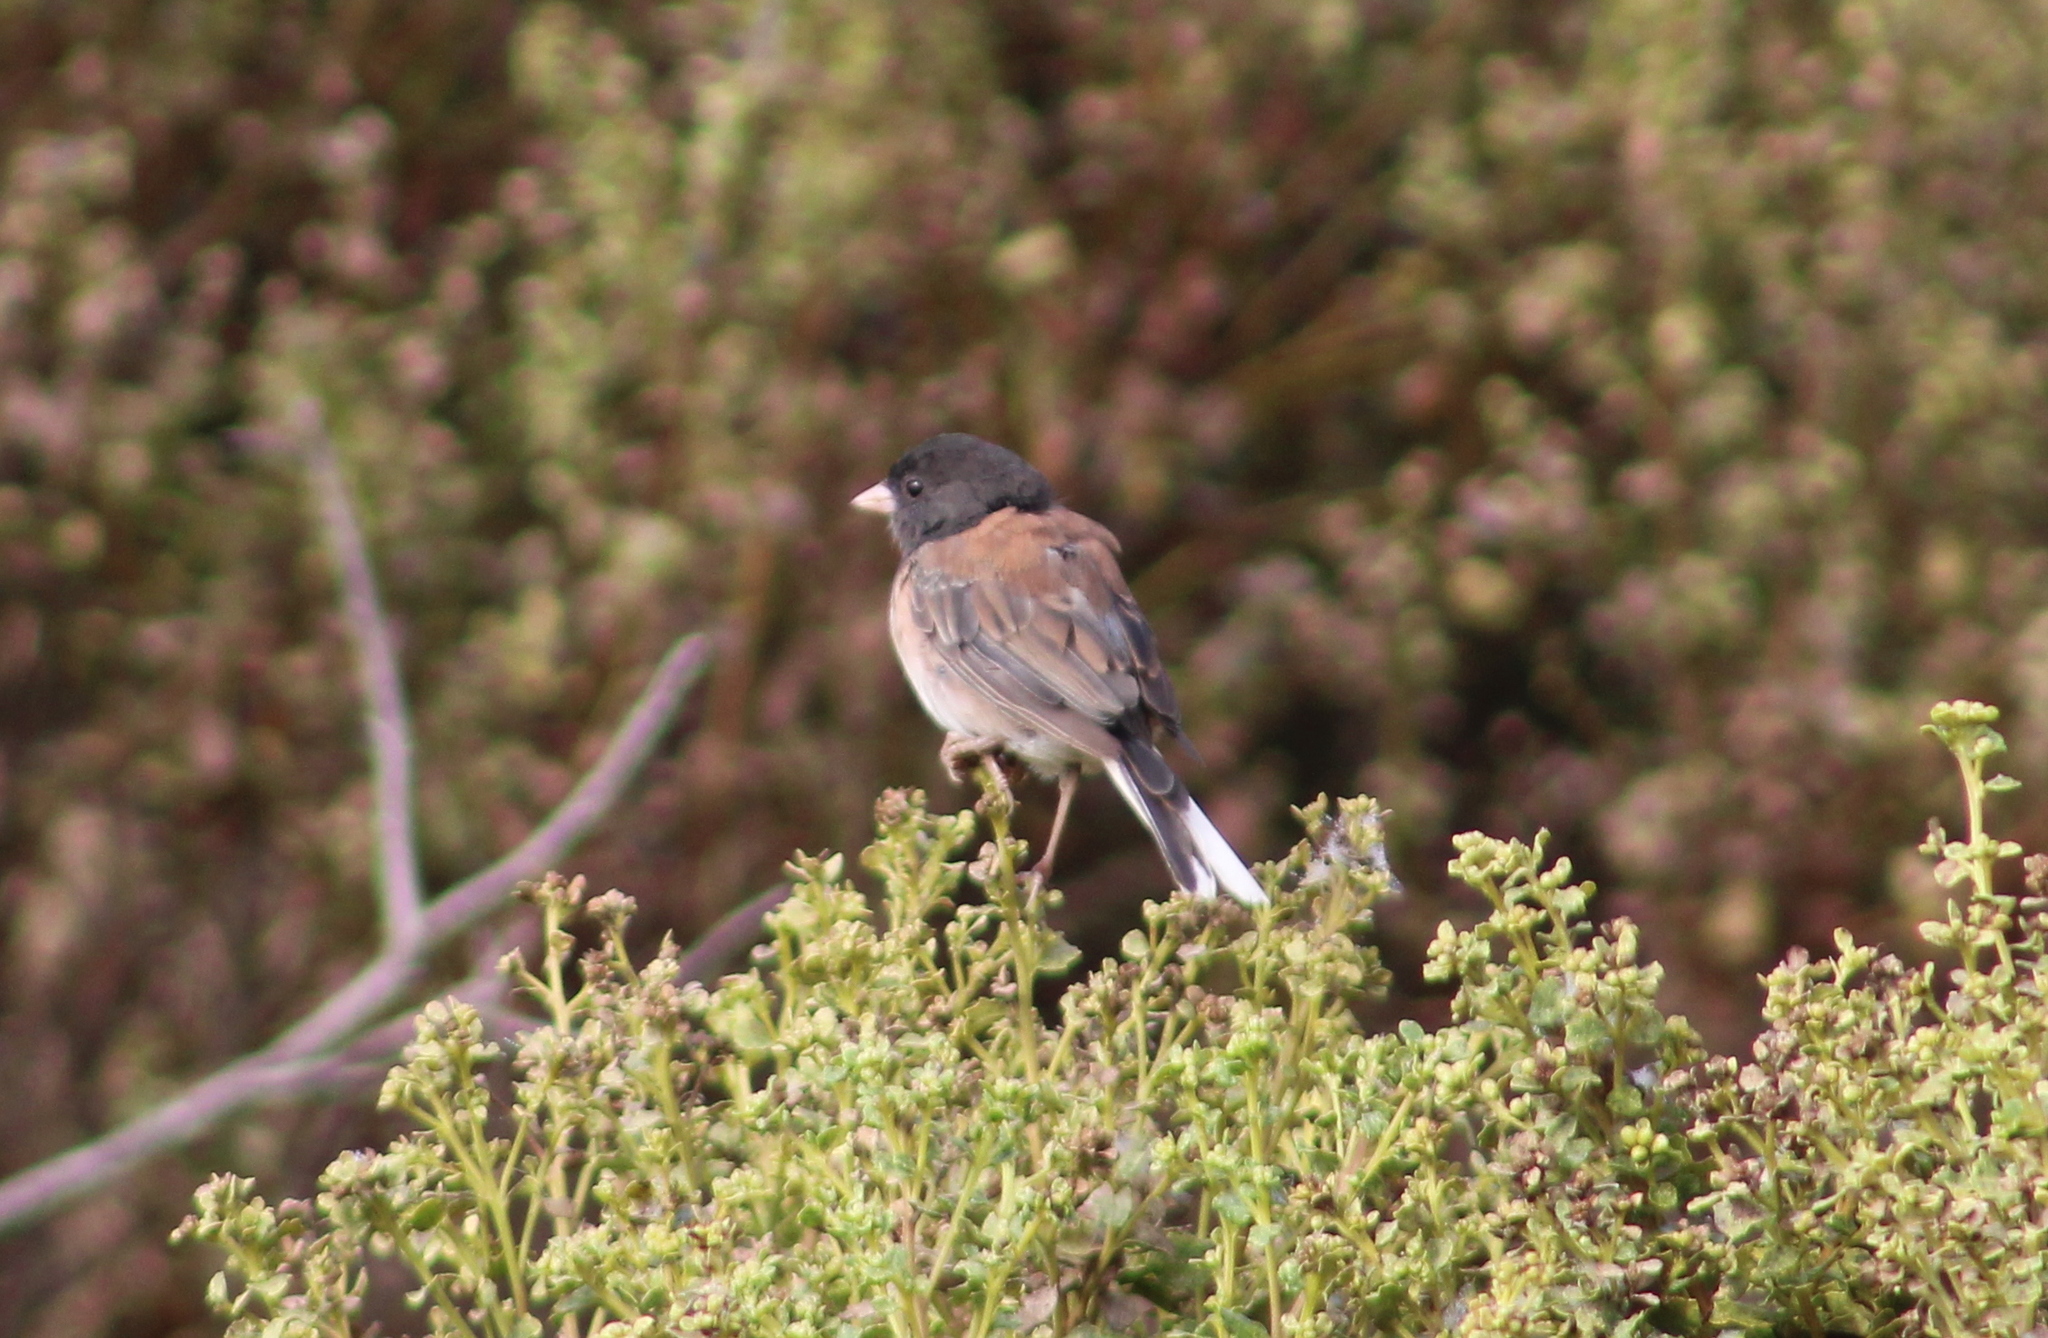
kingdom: Animalia
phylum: Chordata
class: Aves
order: Passeriformes
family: Passerellidae
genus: Junco
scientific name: Junco hyemalis
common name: Dark-eyed junco
